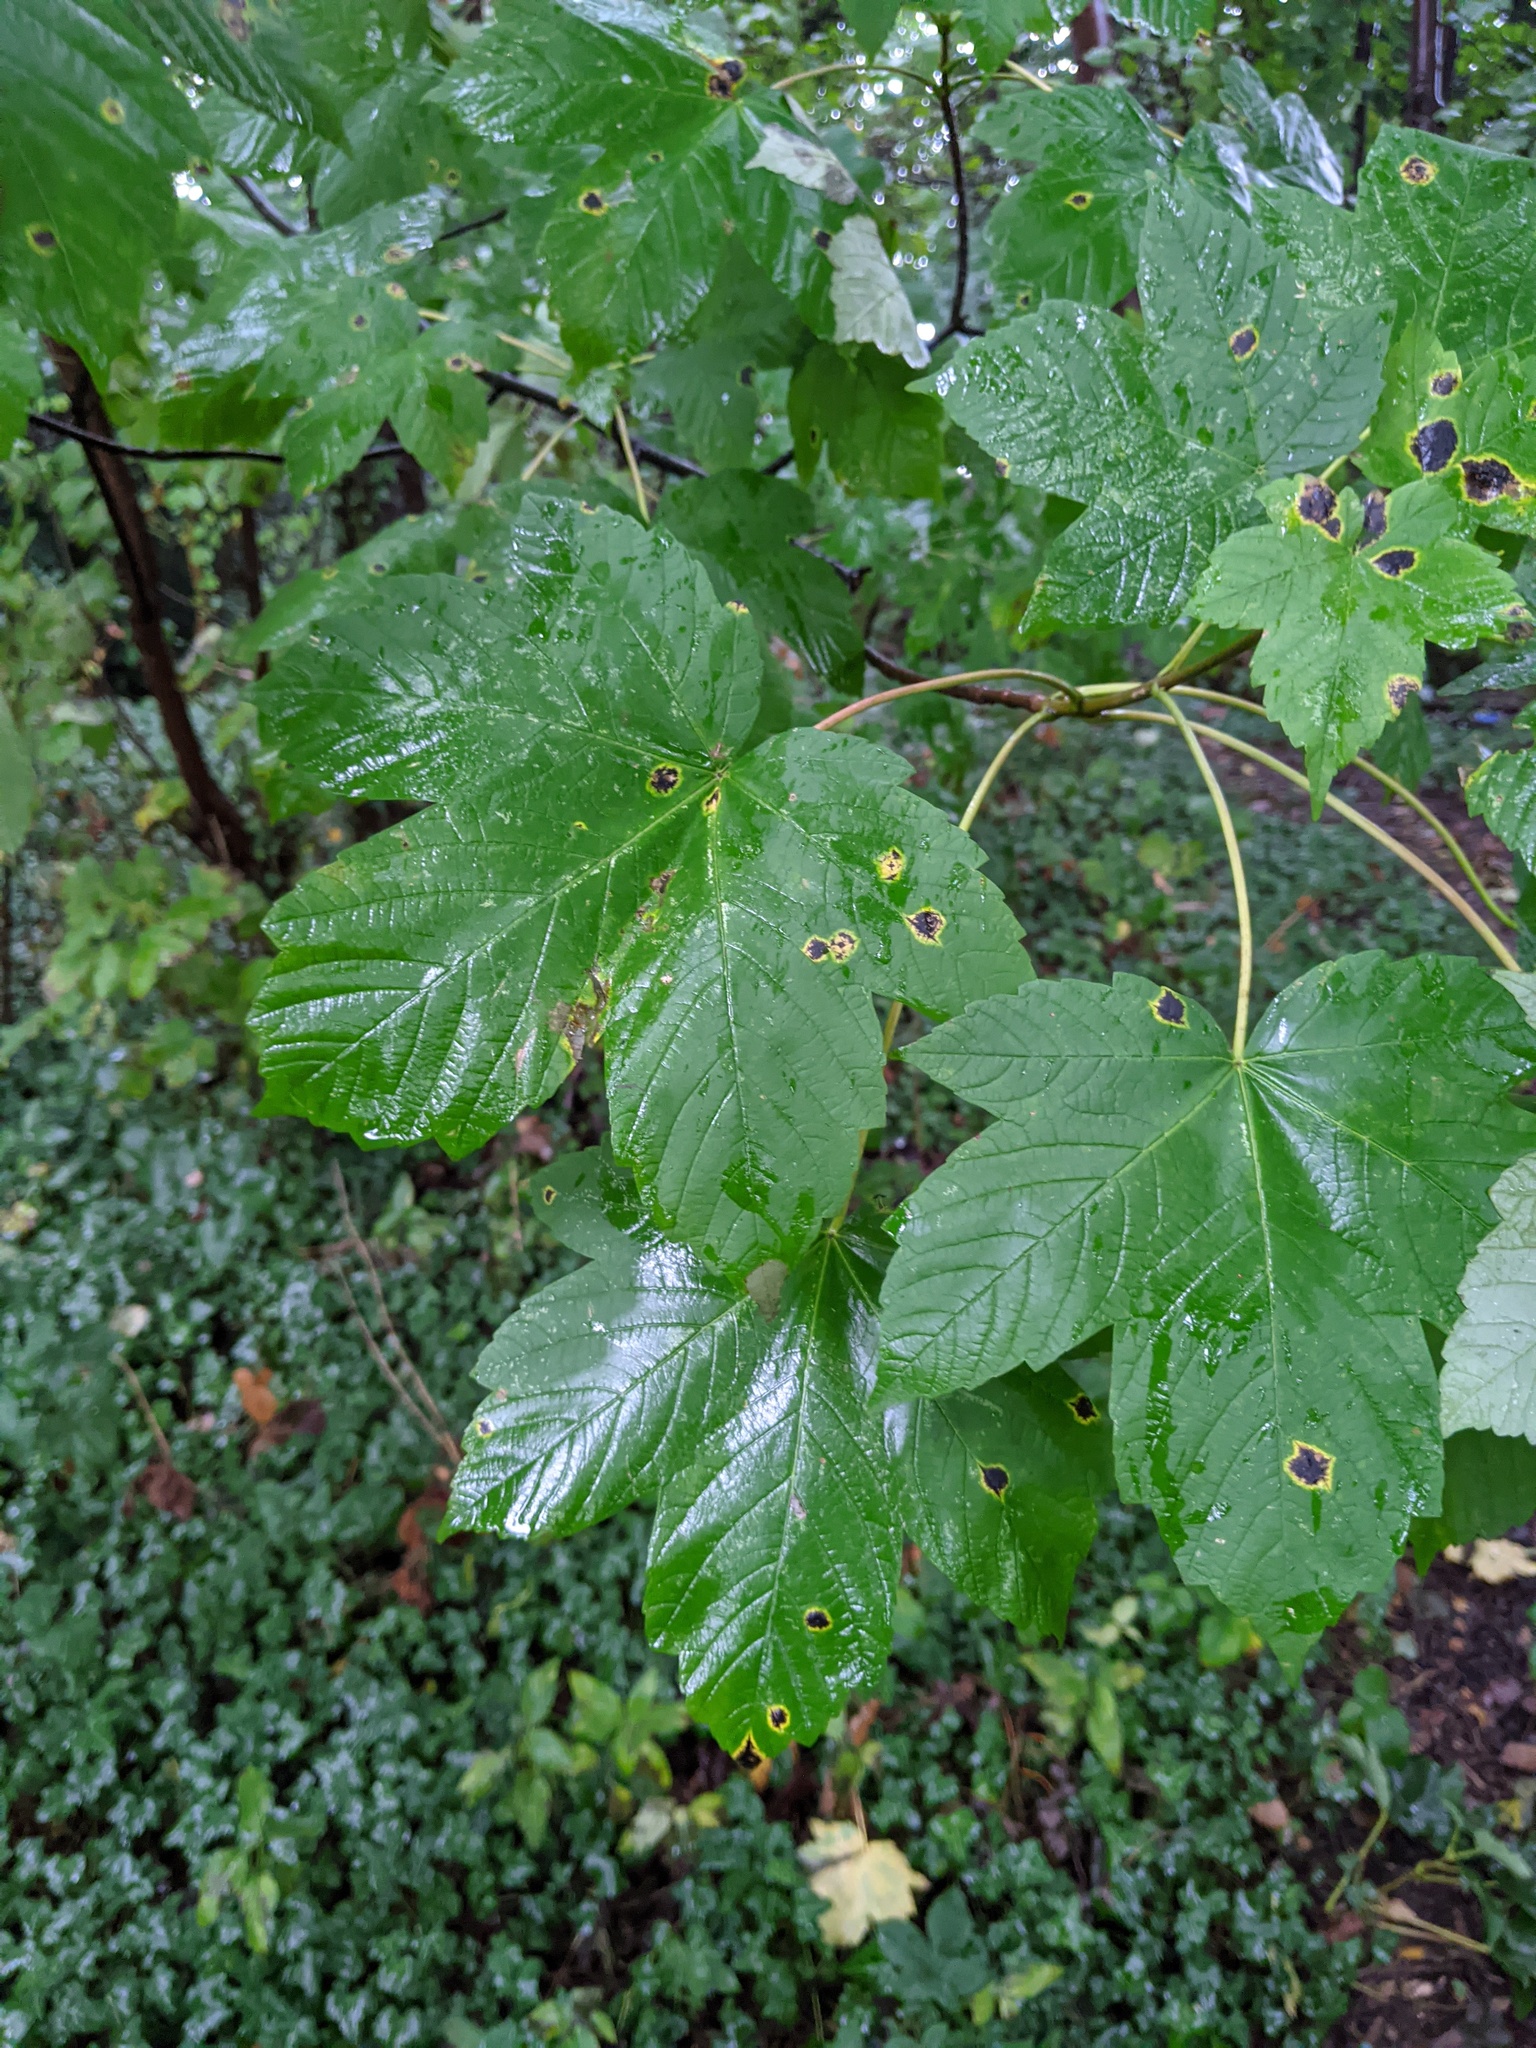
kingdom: Plantae
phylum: Tracheophyta
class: Magnoliopsida
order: Sapindales
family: Sapindaceae
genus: Acer
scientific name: Acer pseudoplatanus
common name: Sycamore
